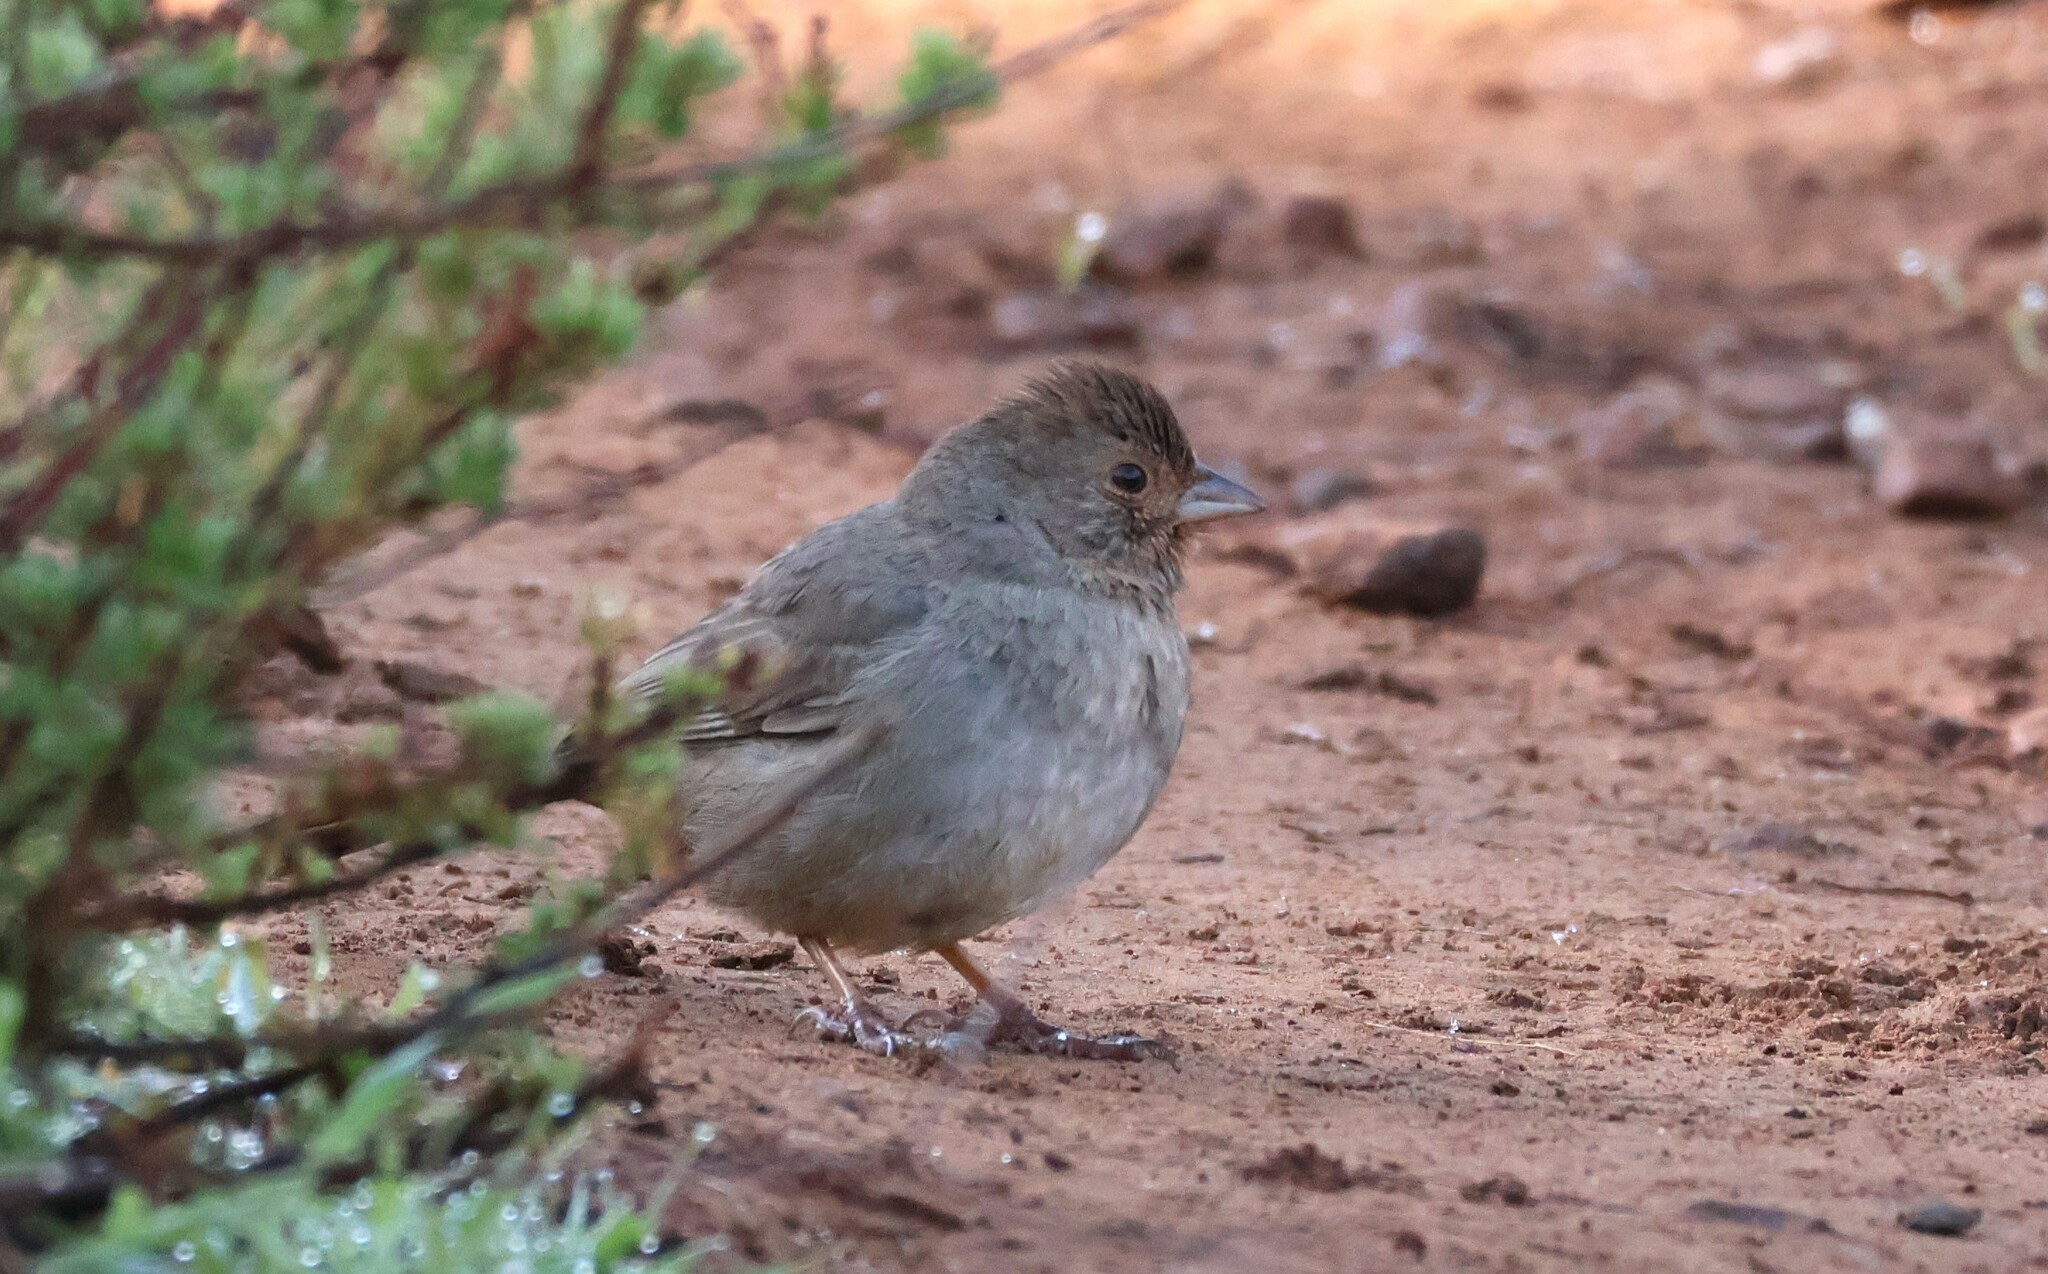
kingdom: Animalia
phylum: Chordata
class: Aves
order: Passeriformes
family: Passerellidae
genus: Melozone
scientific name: Melozone crissalis
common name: California towhee
